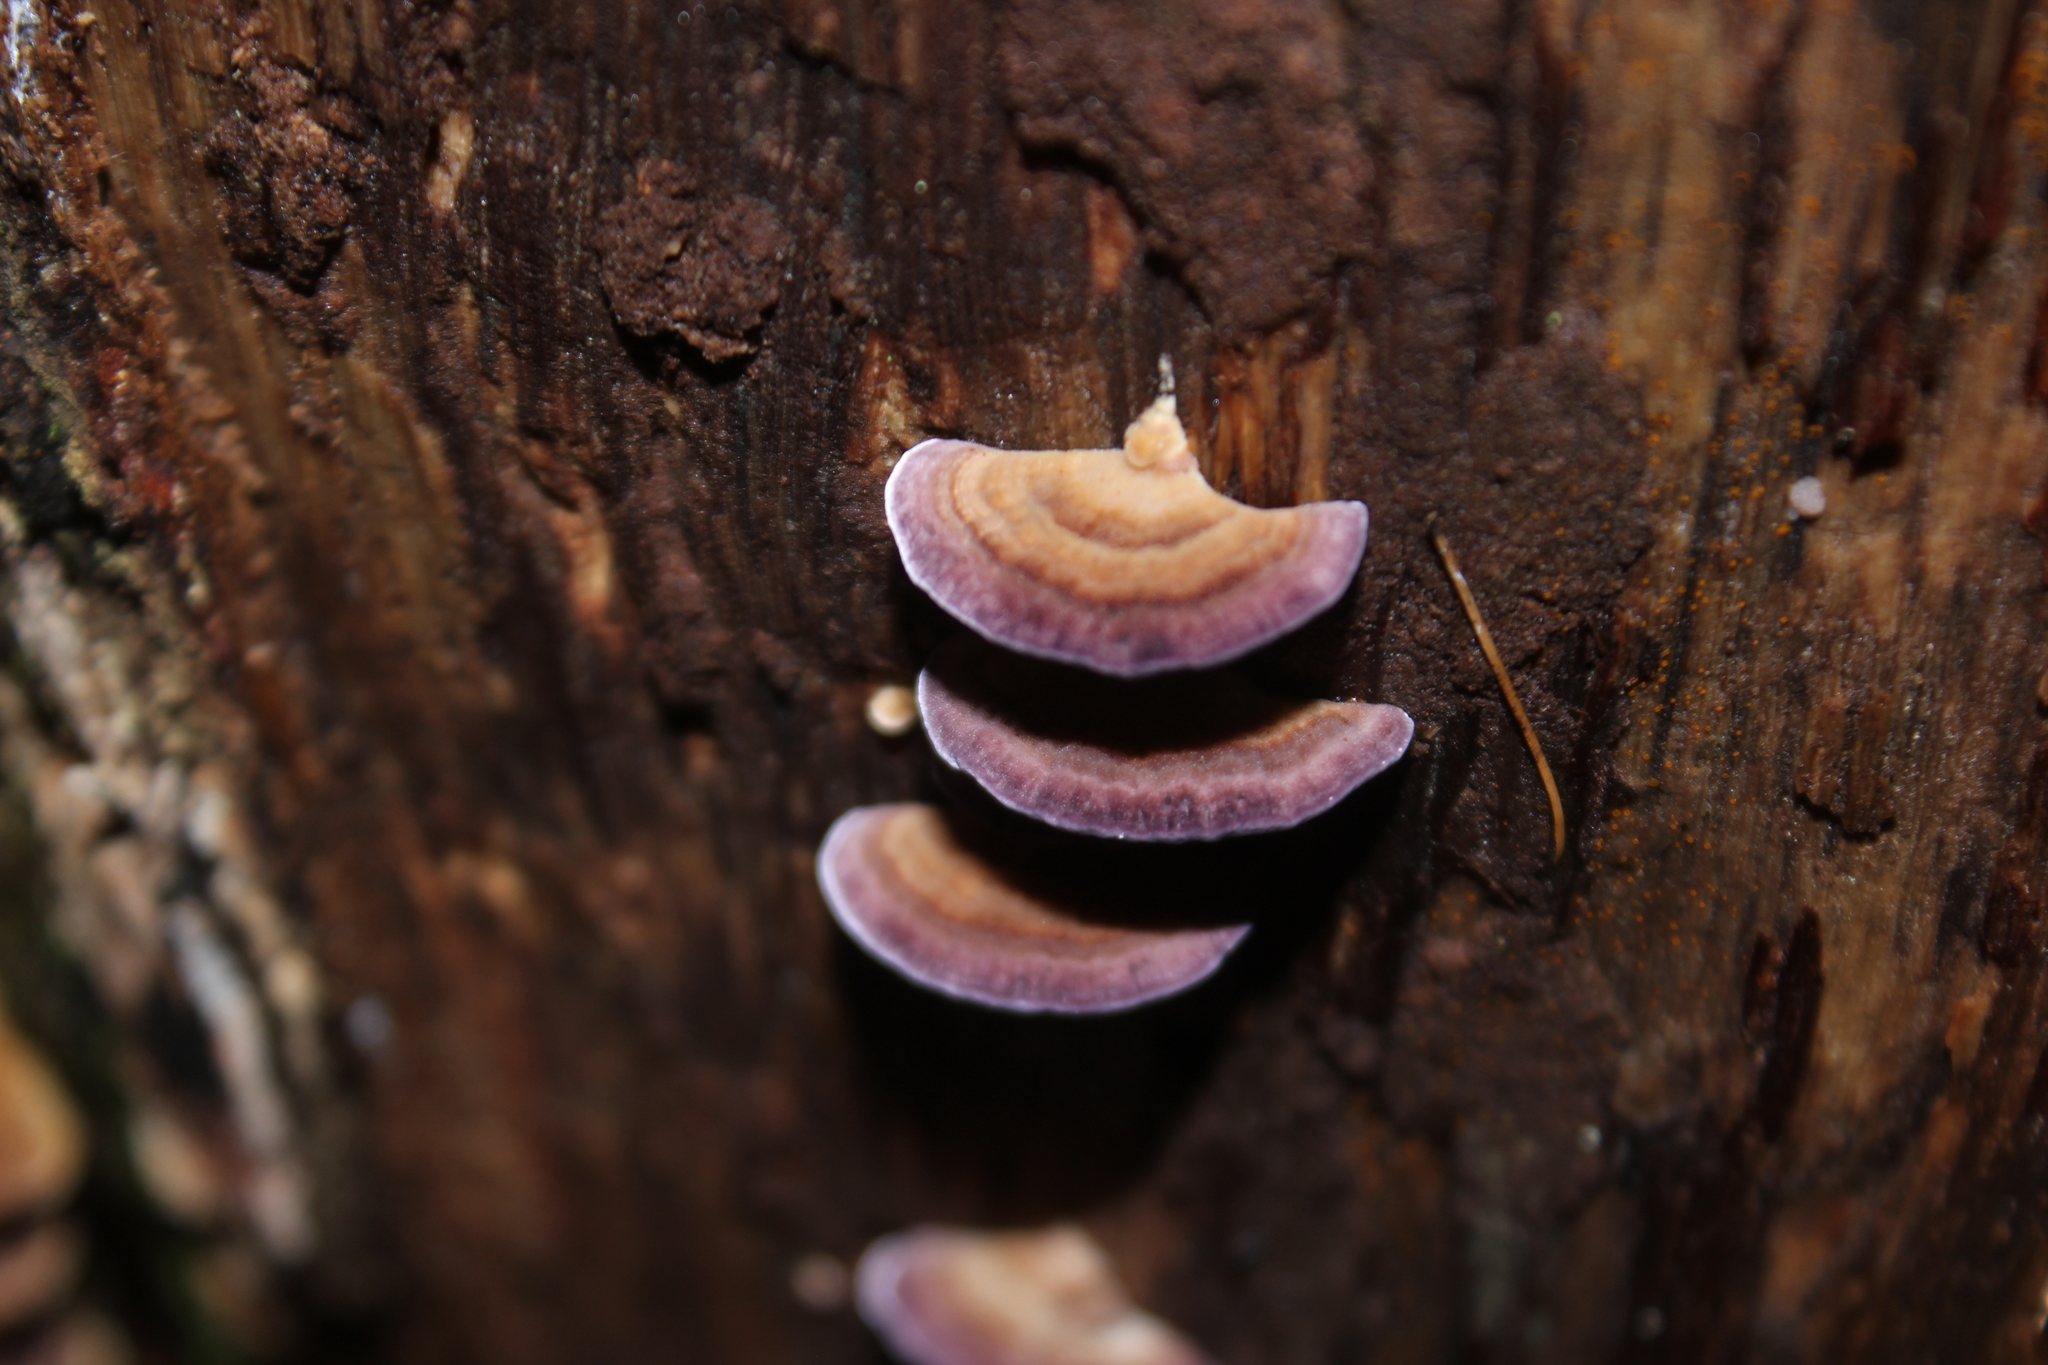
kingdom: Fungi
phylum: Basidiomycota
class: Agaricomycetes
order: Hymenochaetales
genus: Trichaptum
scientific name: Trichaptum abietinum
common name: Purplepore bracket
